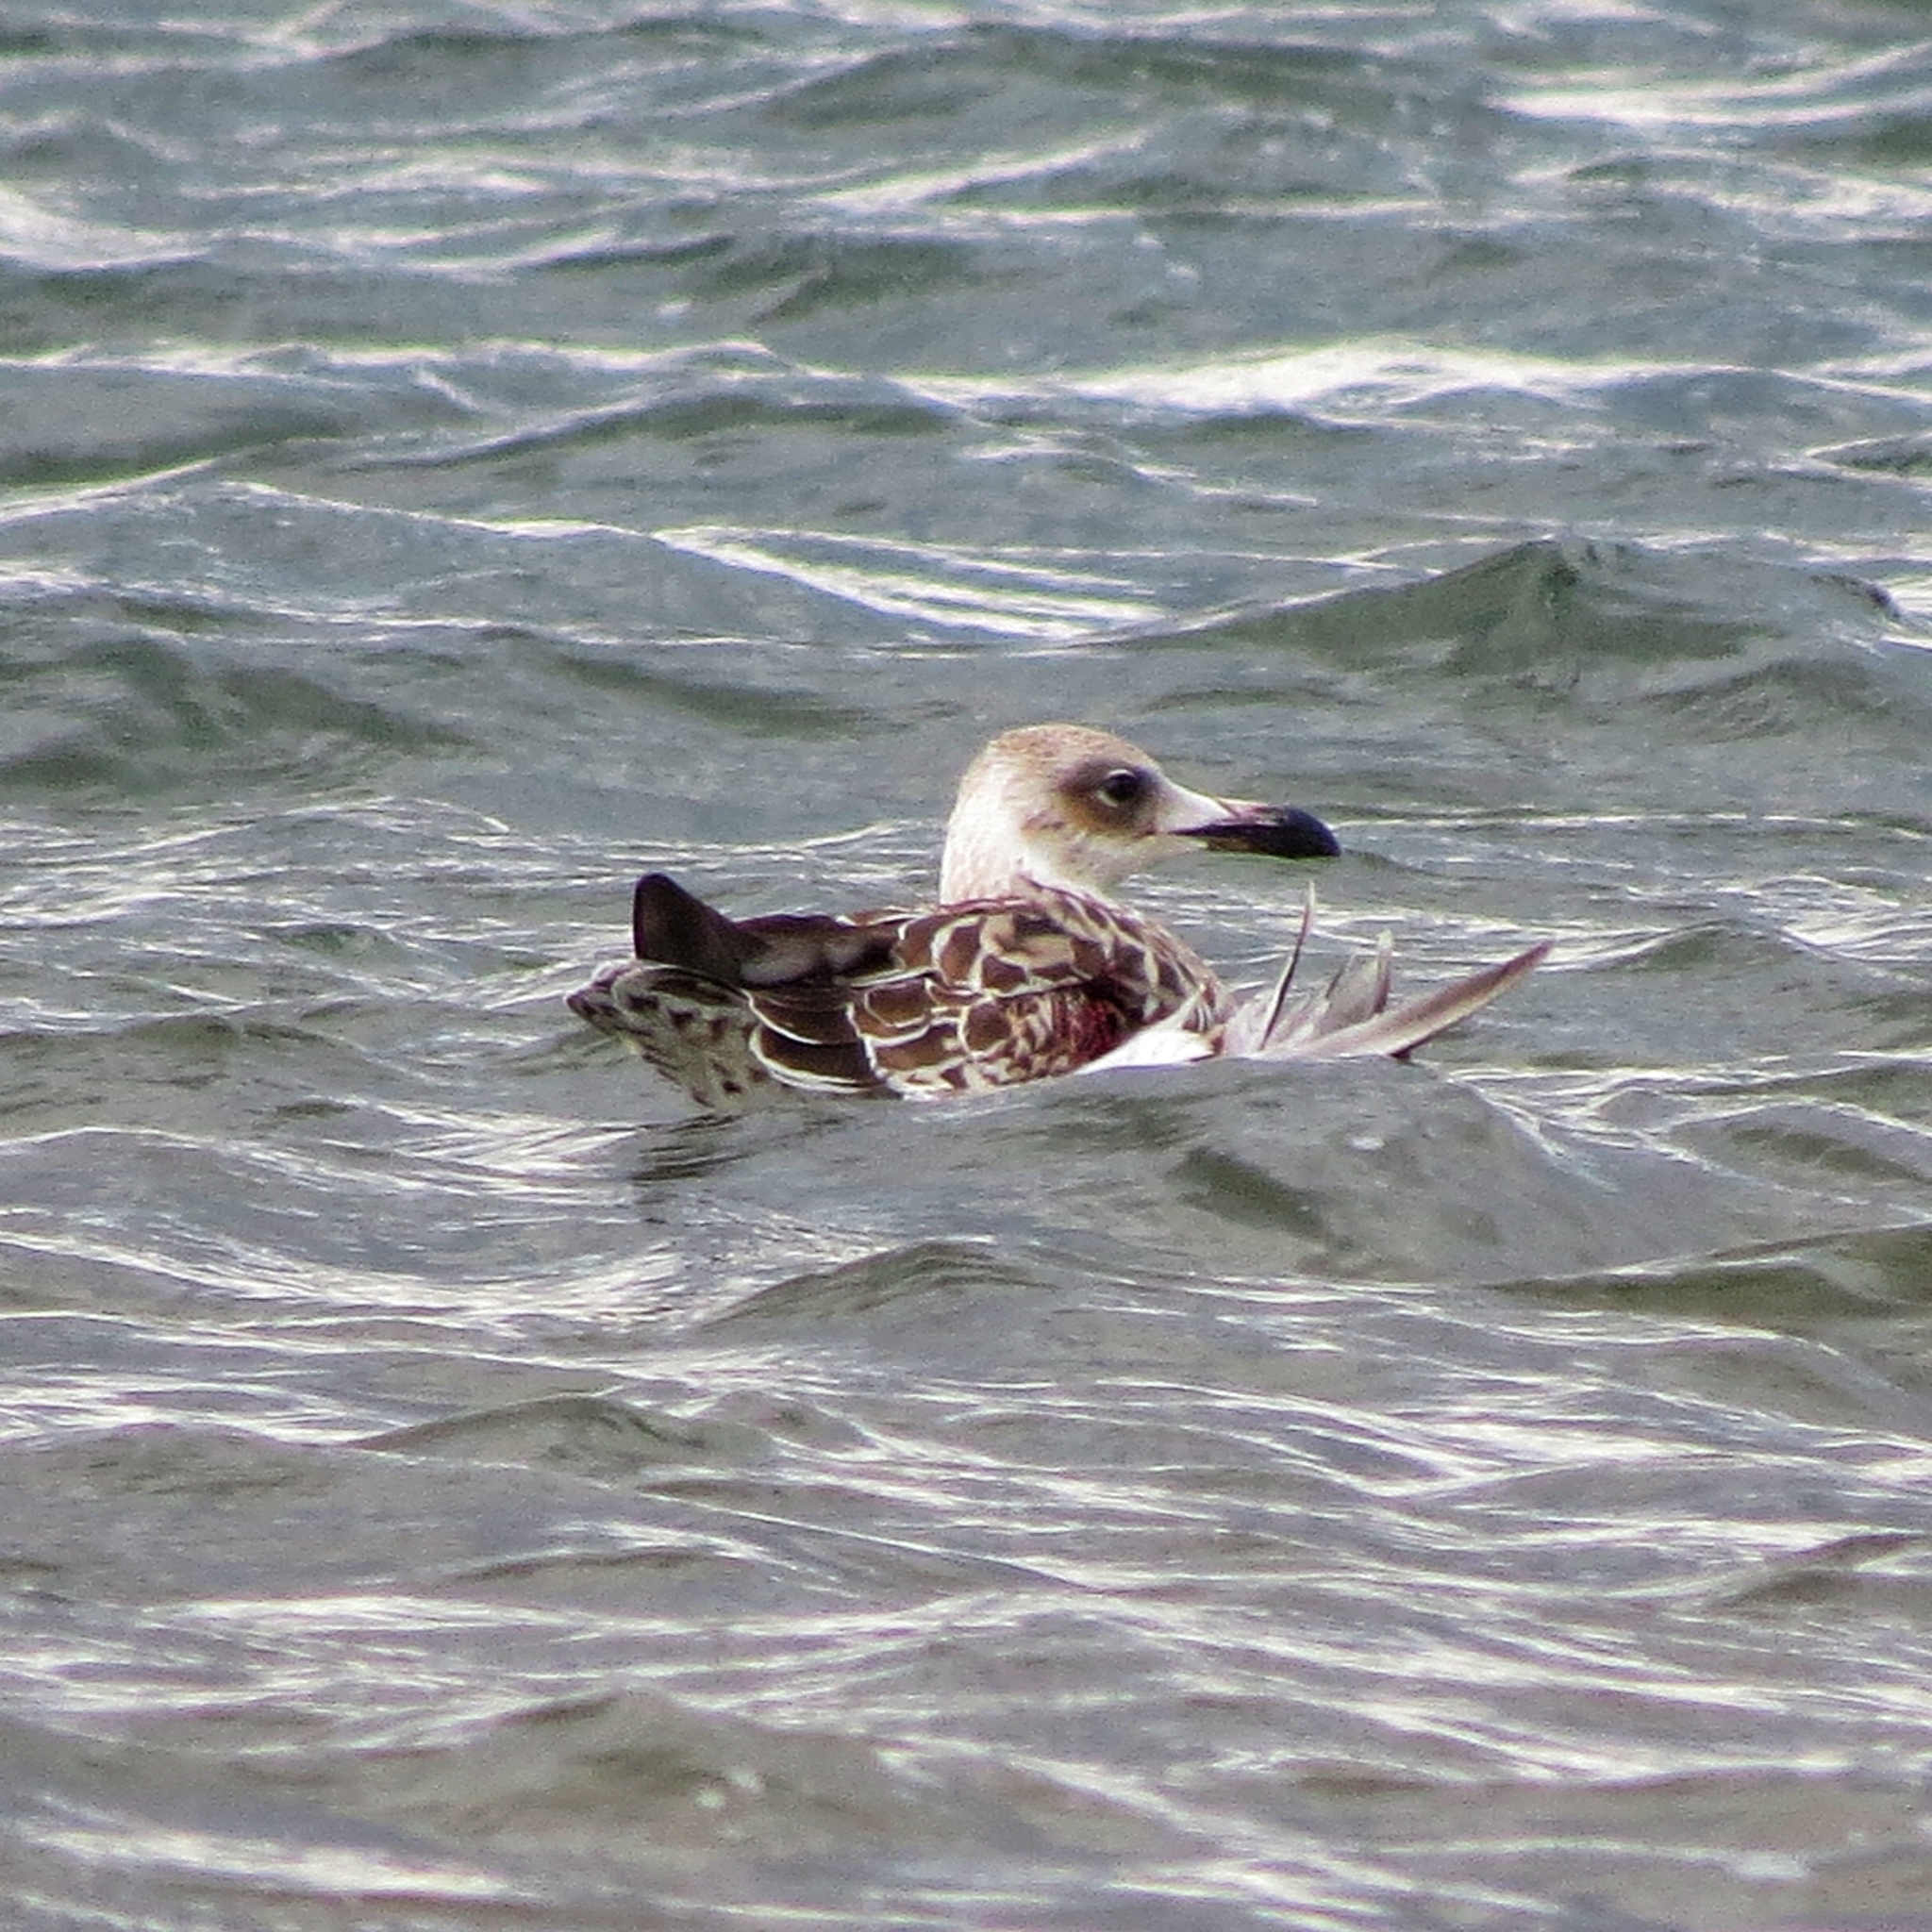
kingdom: Animalia
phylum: Chordata
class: Aves
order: Charadriiformes
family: Laridae
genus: Ichthyaetus
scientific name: Ichthyaetus ichthyaetus
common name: Pallas's gull
